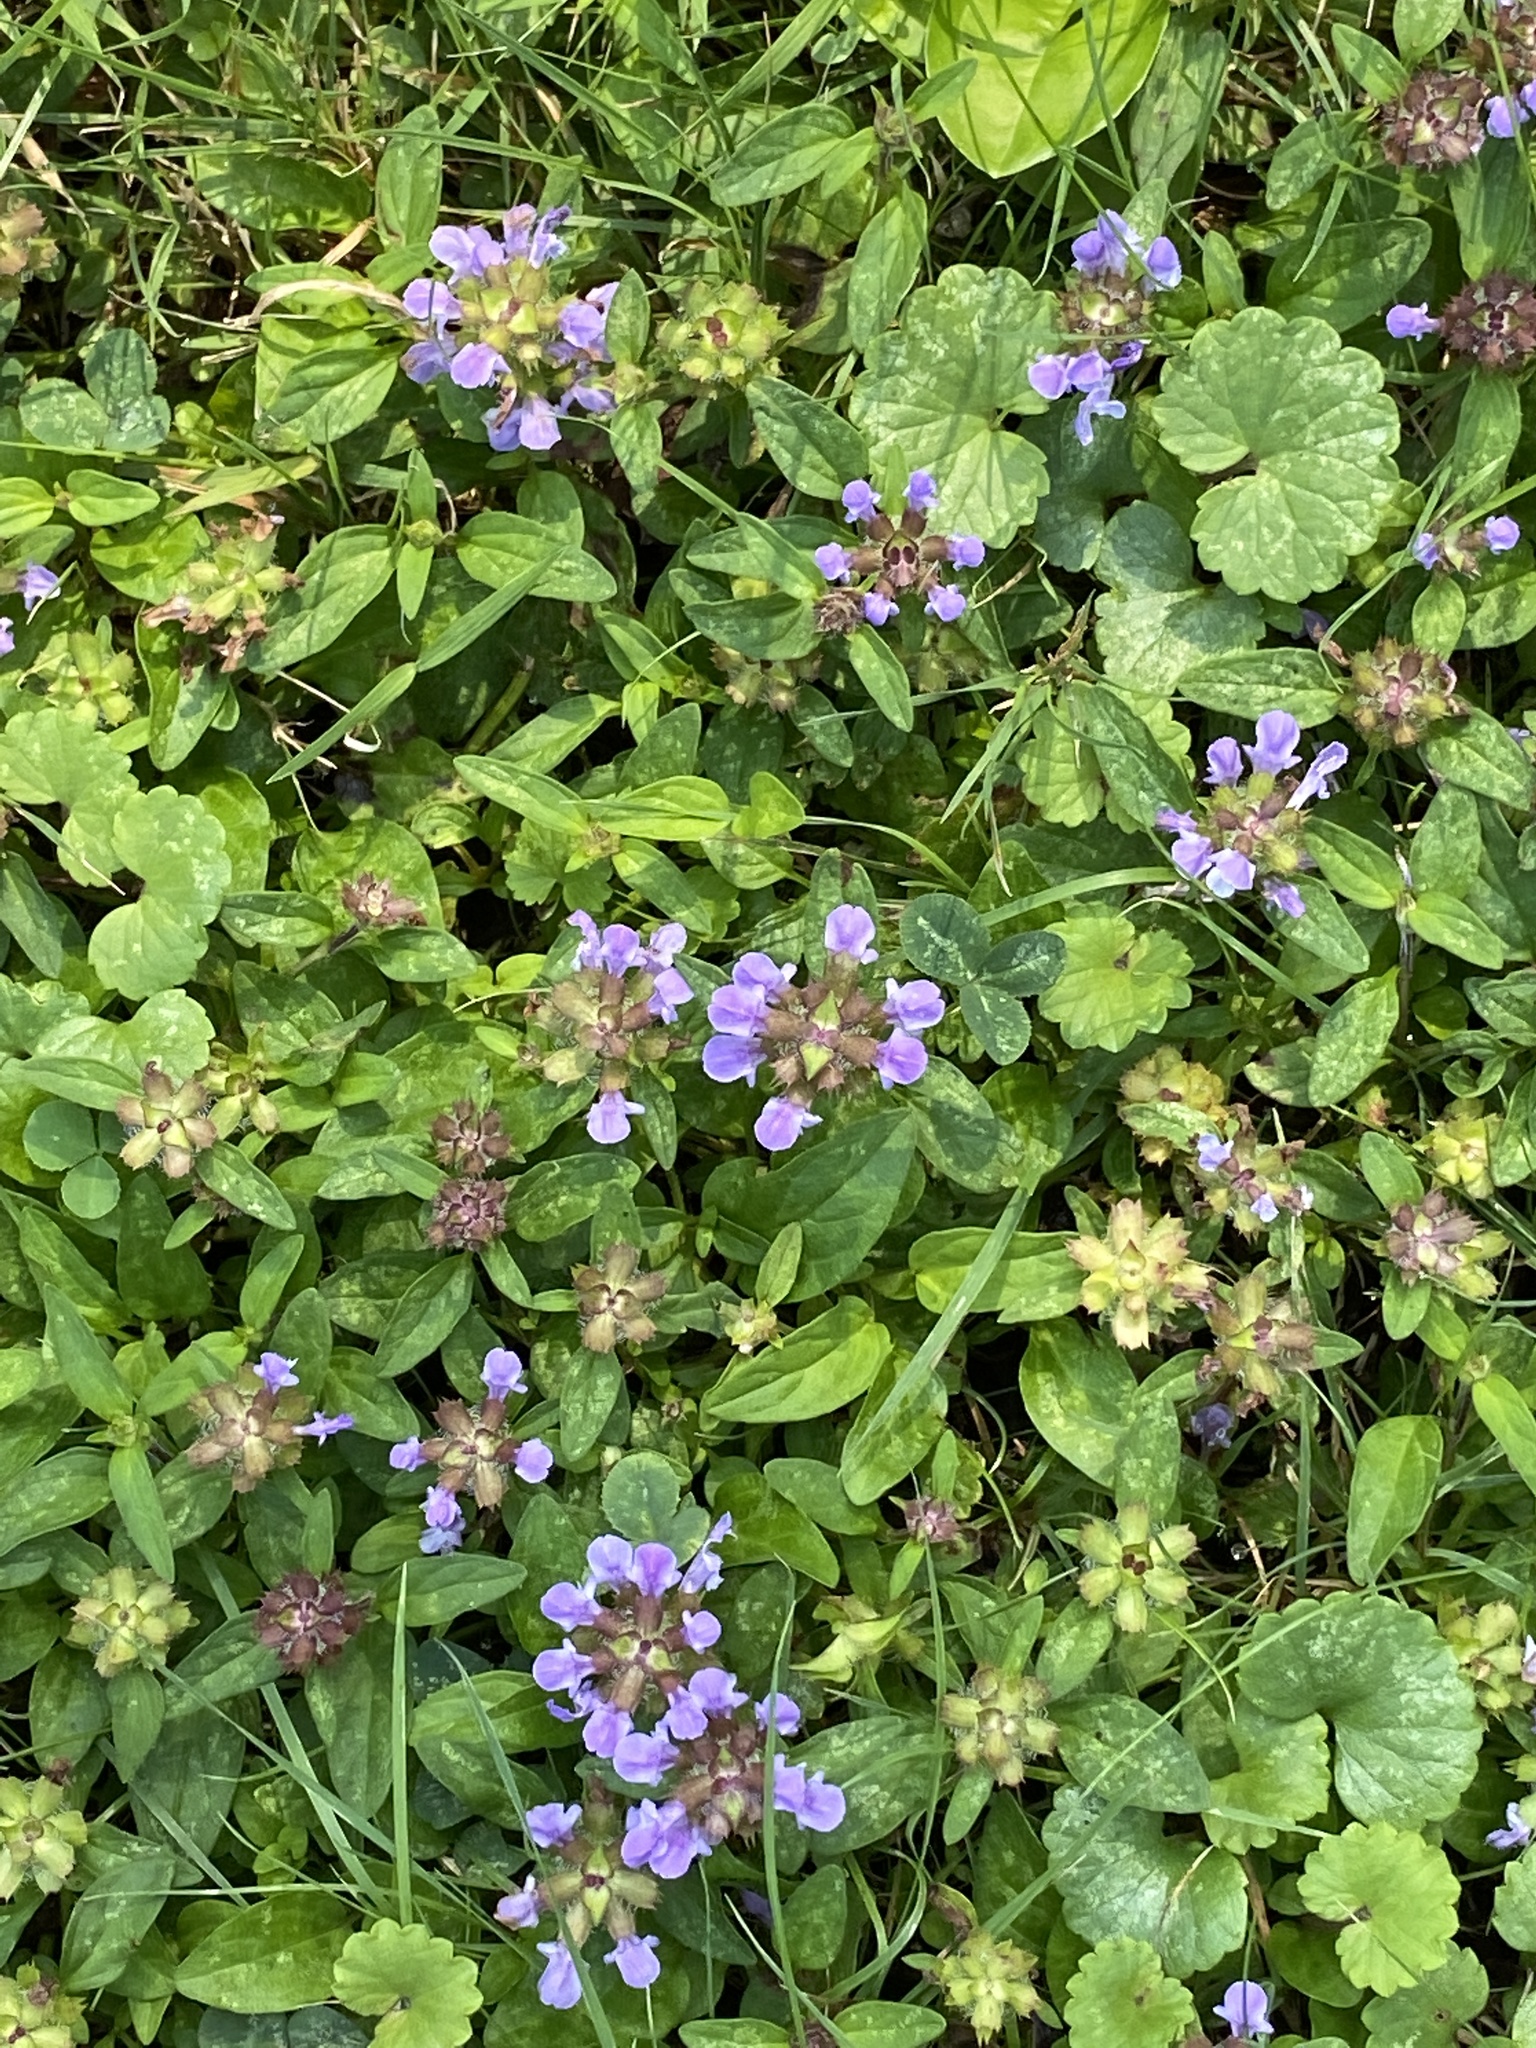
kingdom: Plantae
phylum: Tracheophyta
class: Magnoliopsida
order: Lamiales
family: Lamiaceae
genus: Prunella
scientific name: Prunella vulgaris
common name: Heal-all
